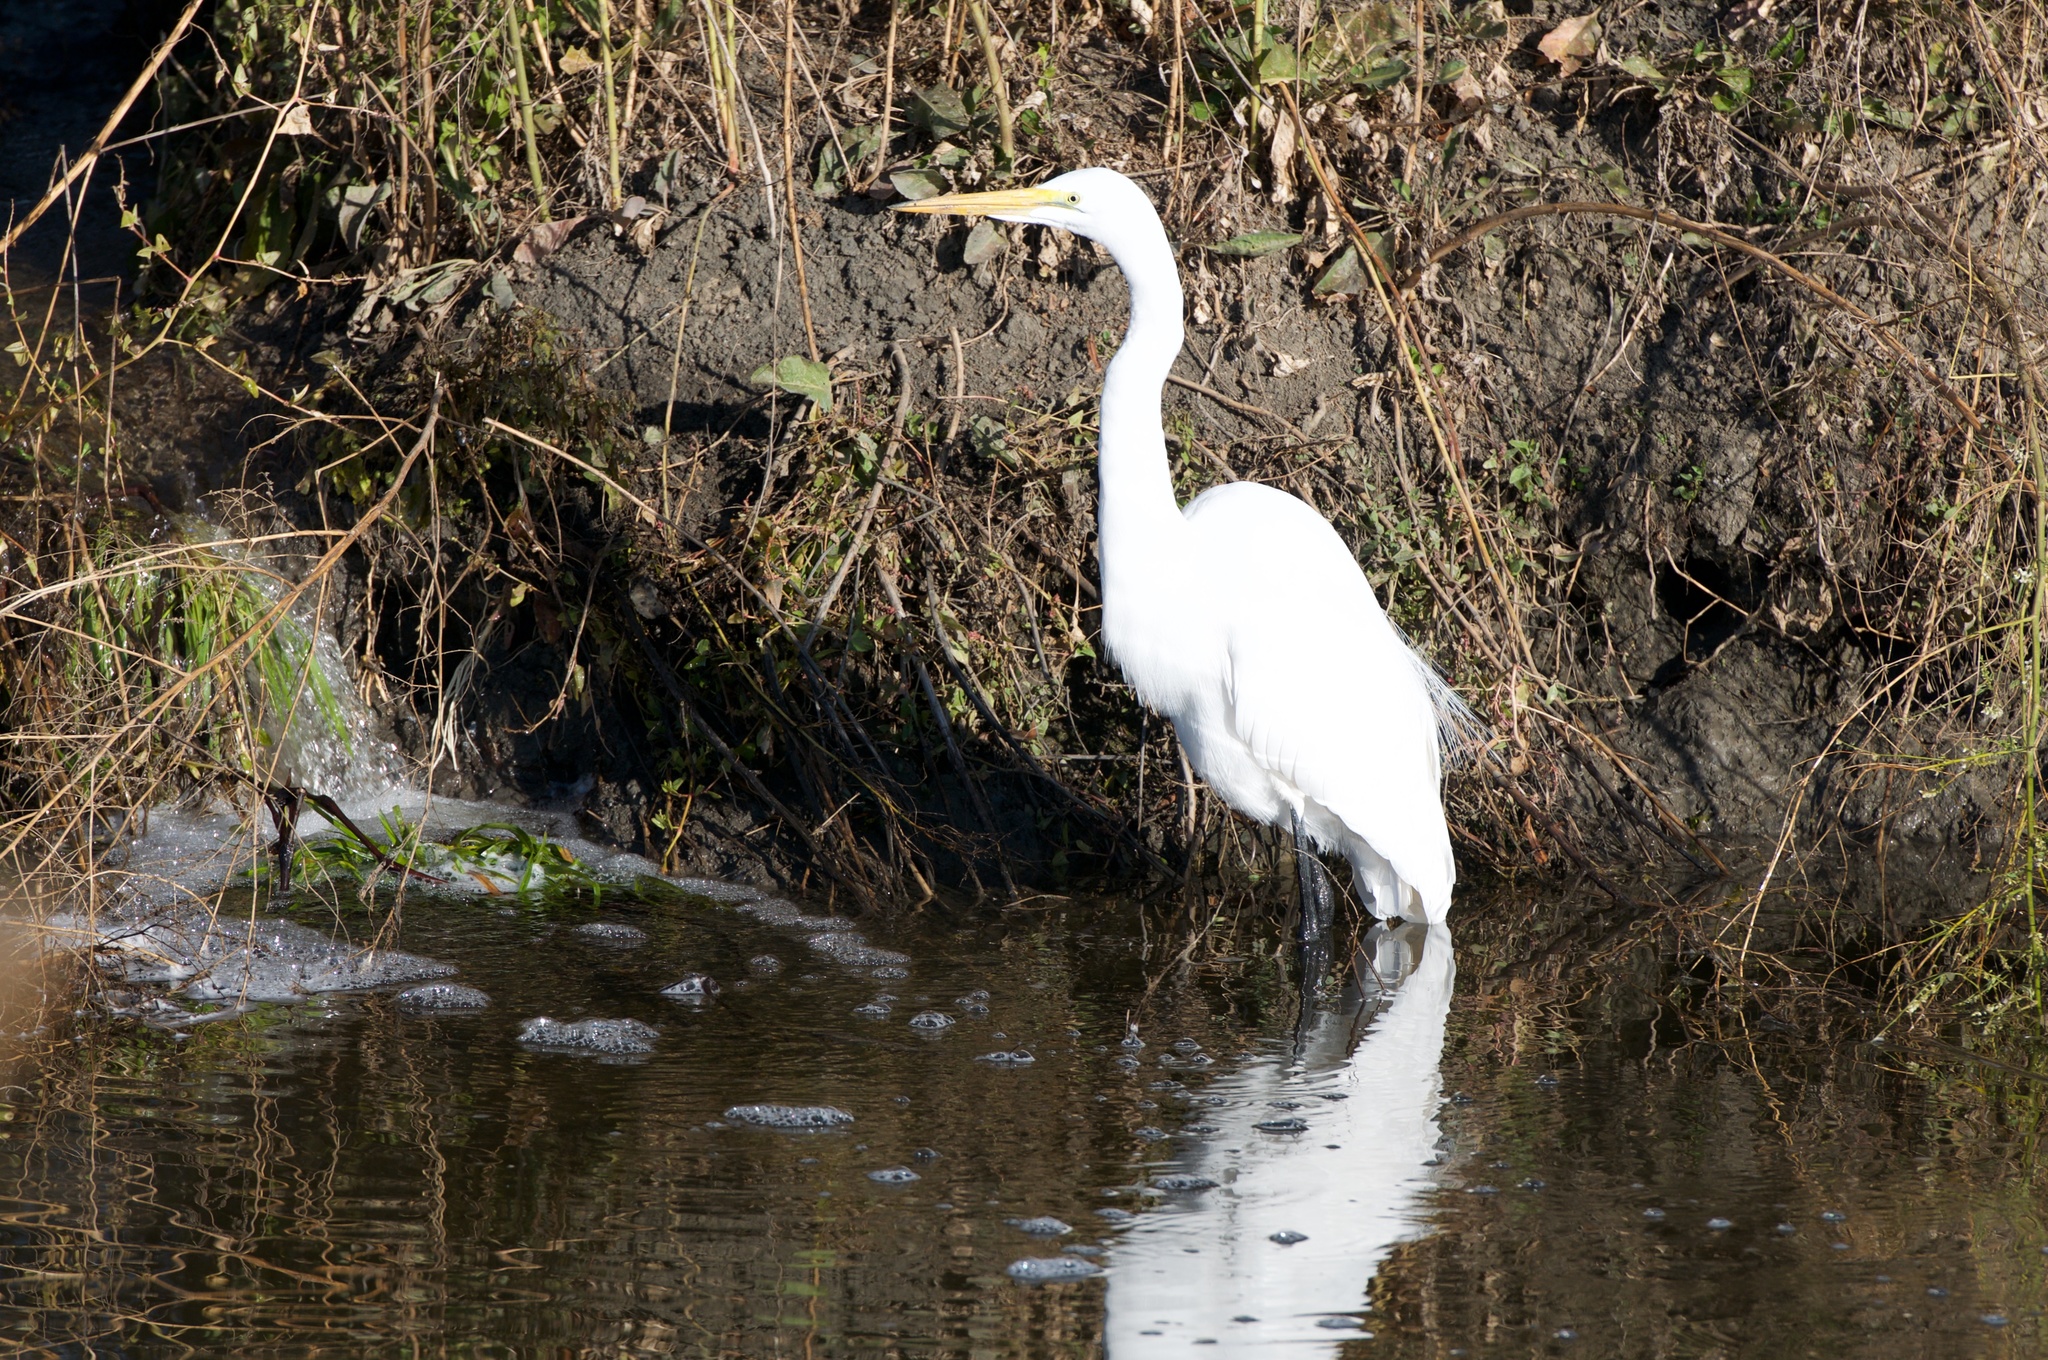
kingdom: Animalia
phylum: Chordata
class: Aves
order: Pelecaniformes
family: Ardeidae
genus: Ardea
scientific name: Ardea alba
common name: Great egret
